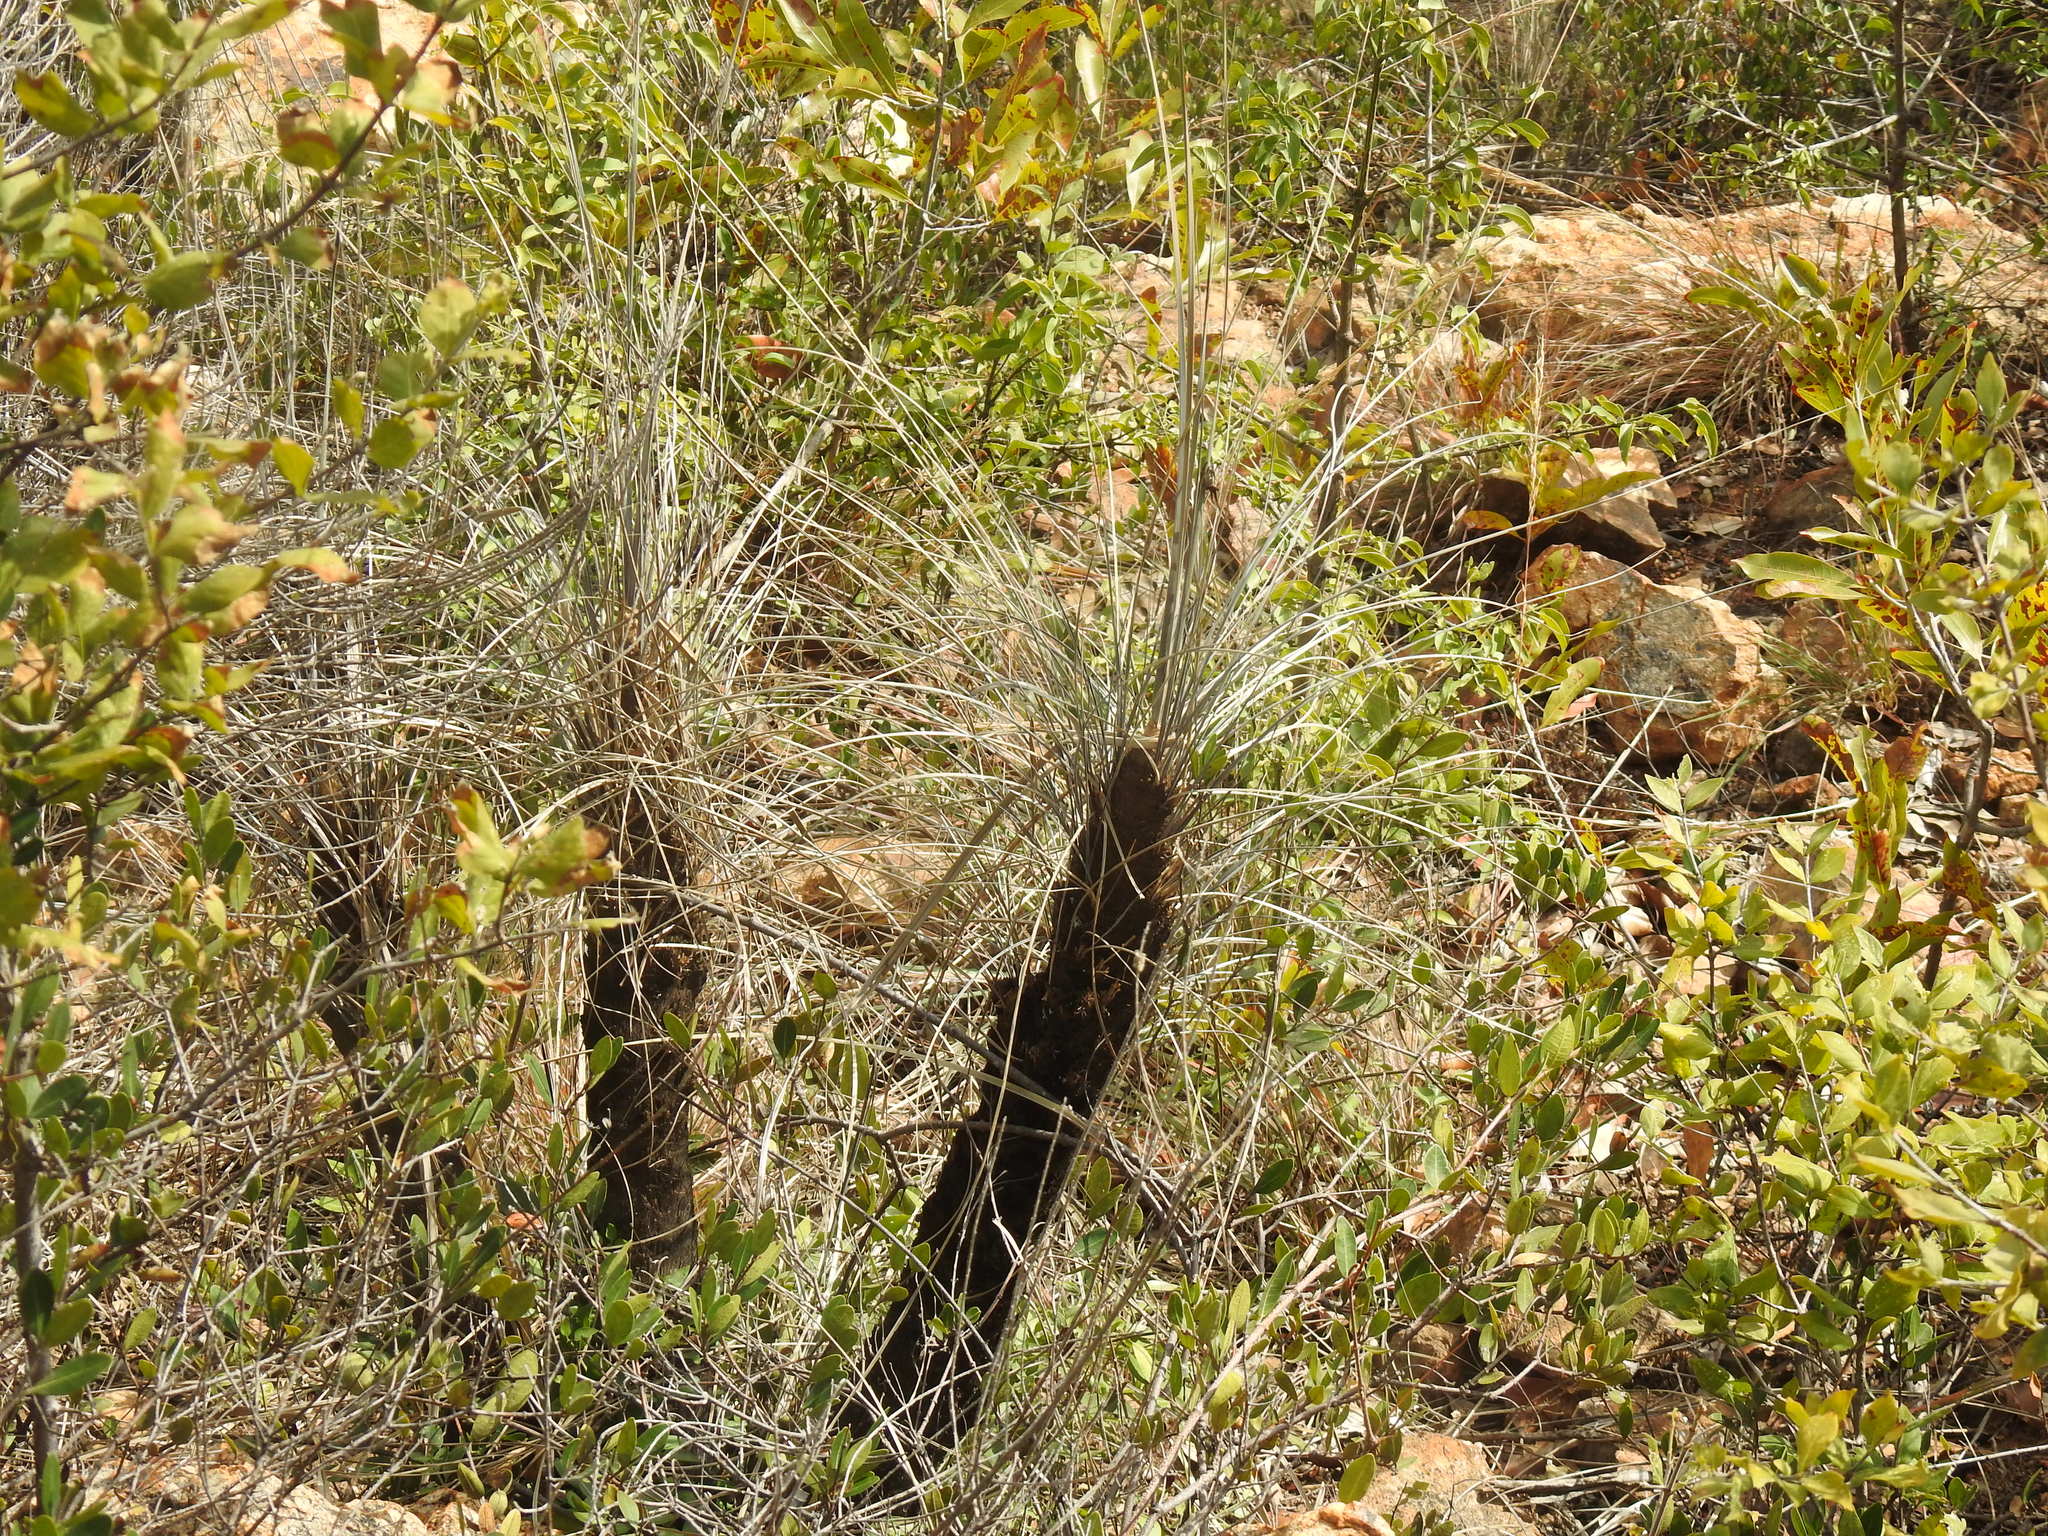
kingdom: Plantae
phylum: Tracheophyta
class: Liliopsida
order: Pandanales
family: Velloziaceae
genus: Xerophyta
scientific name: Xerophyta retinervis
